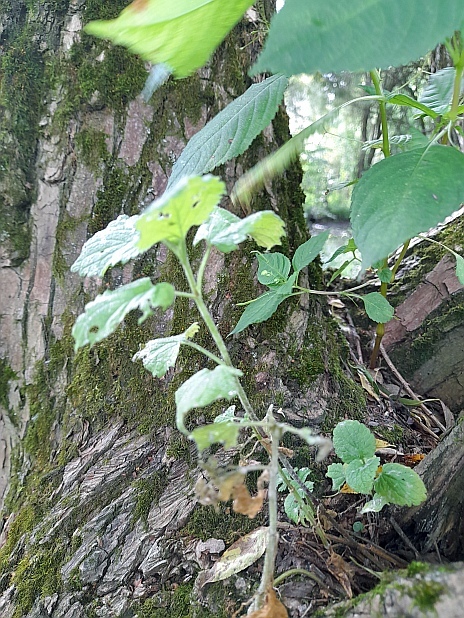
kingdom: Plantae
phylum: Tracheophyta
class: Magnoliopsida
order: Lamiales
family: Lamiaceae
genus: Lamium
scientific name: Lamium album
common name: White dead-nettle
